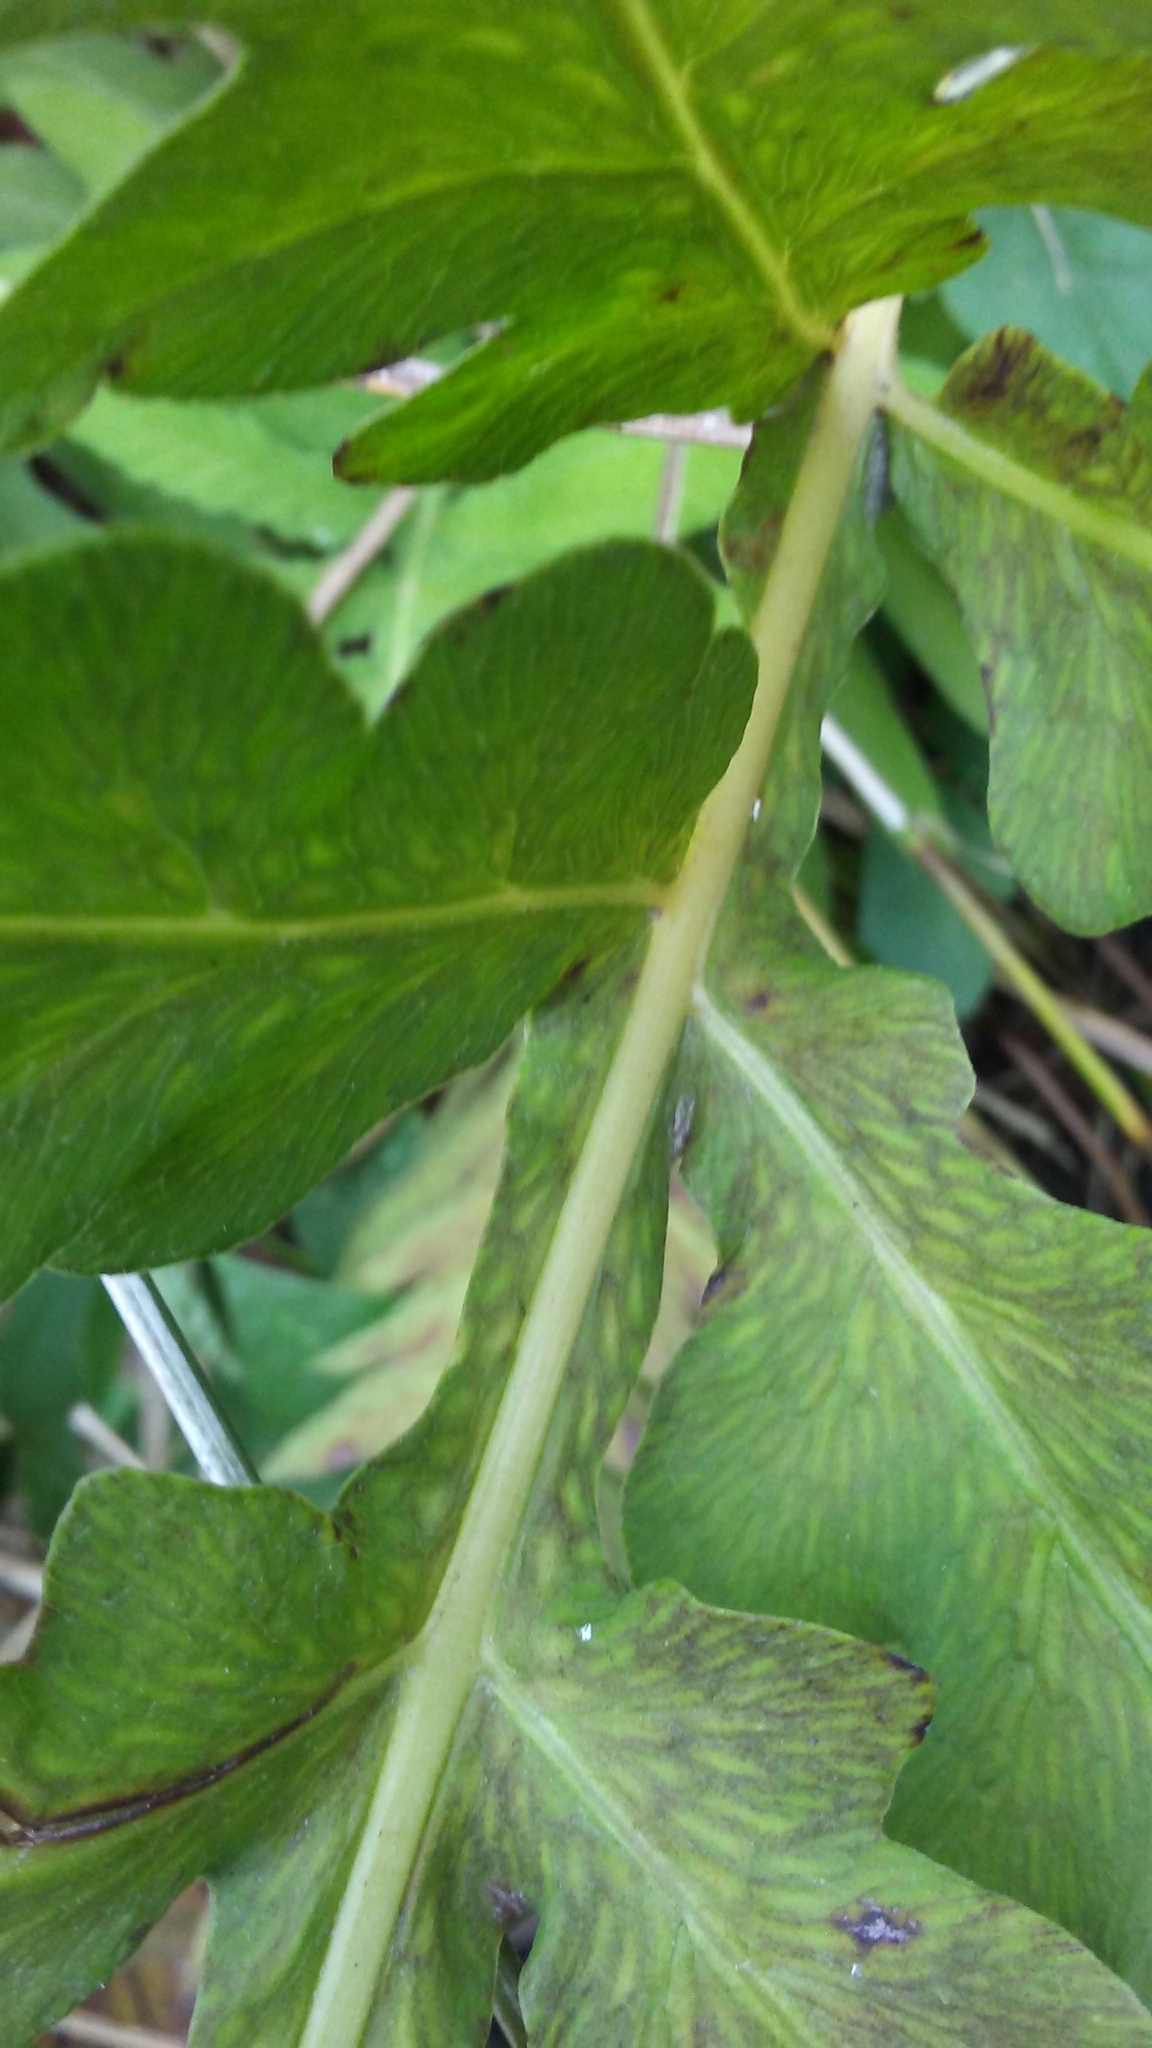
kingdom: Plantae
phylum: Tracheophyta
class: Polypodiopsida
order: Polypodiales
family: Onocleaceae
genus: Onoclea
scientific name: Onoclea sensibilis
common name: Sensitive fern
